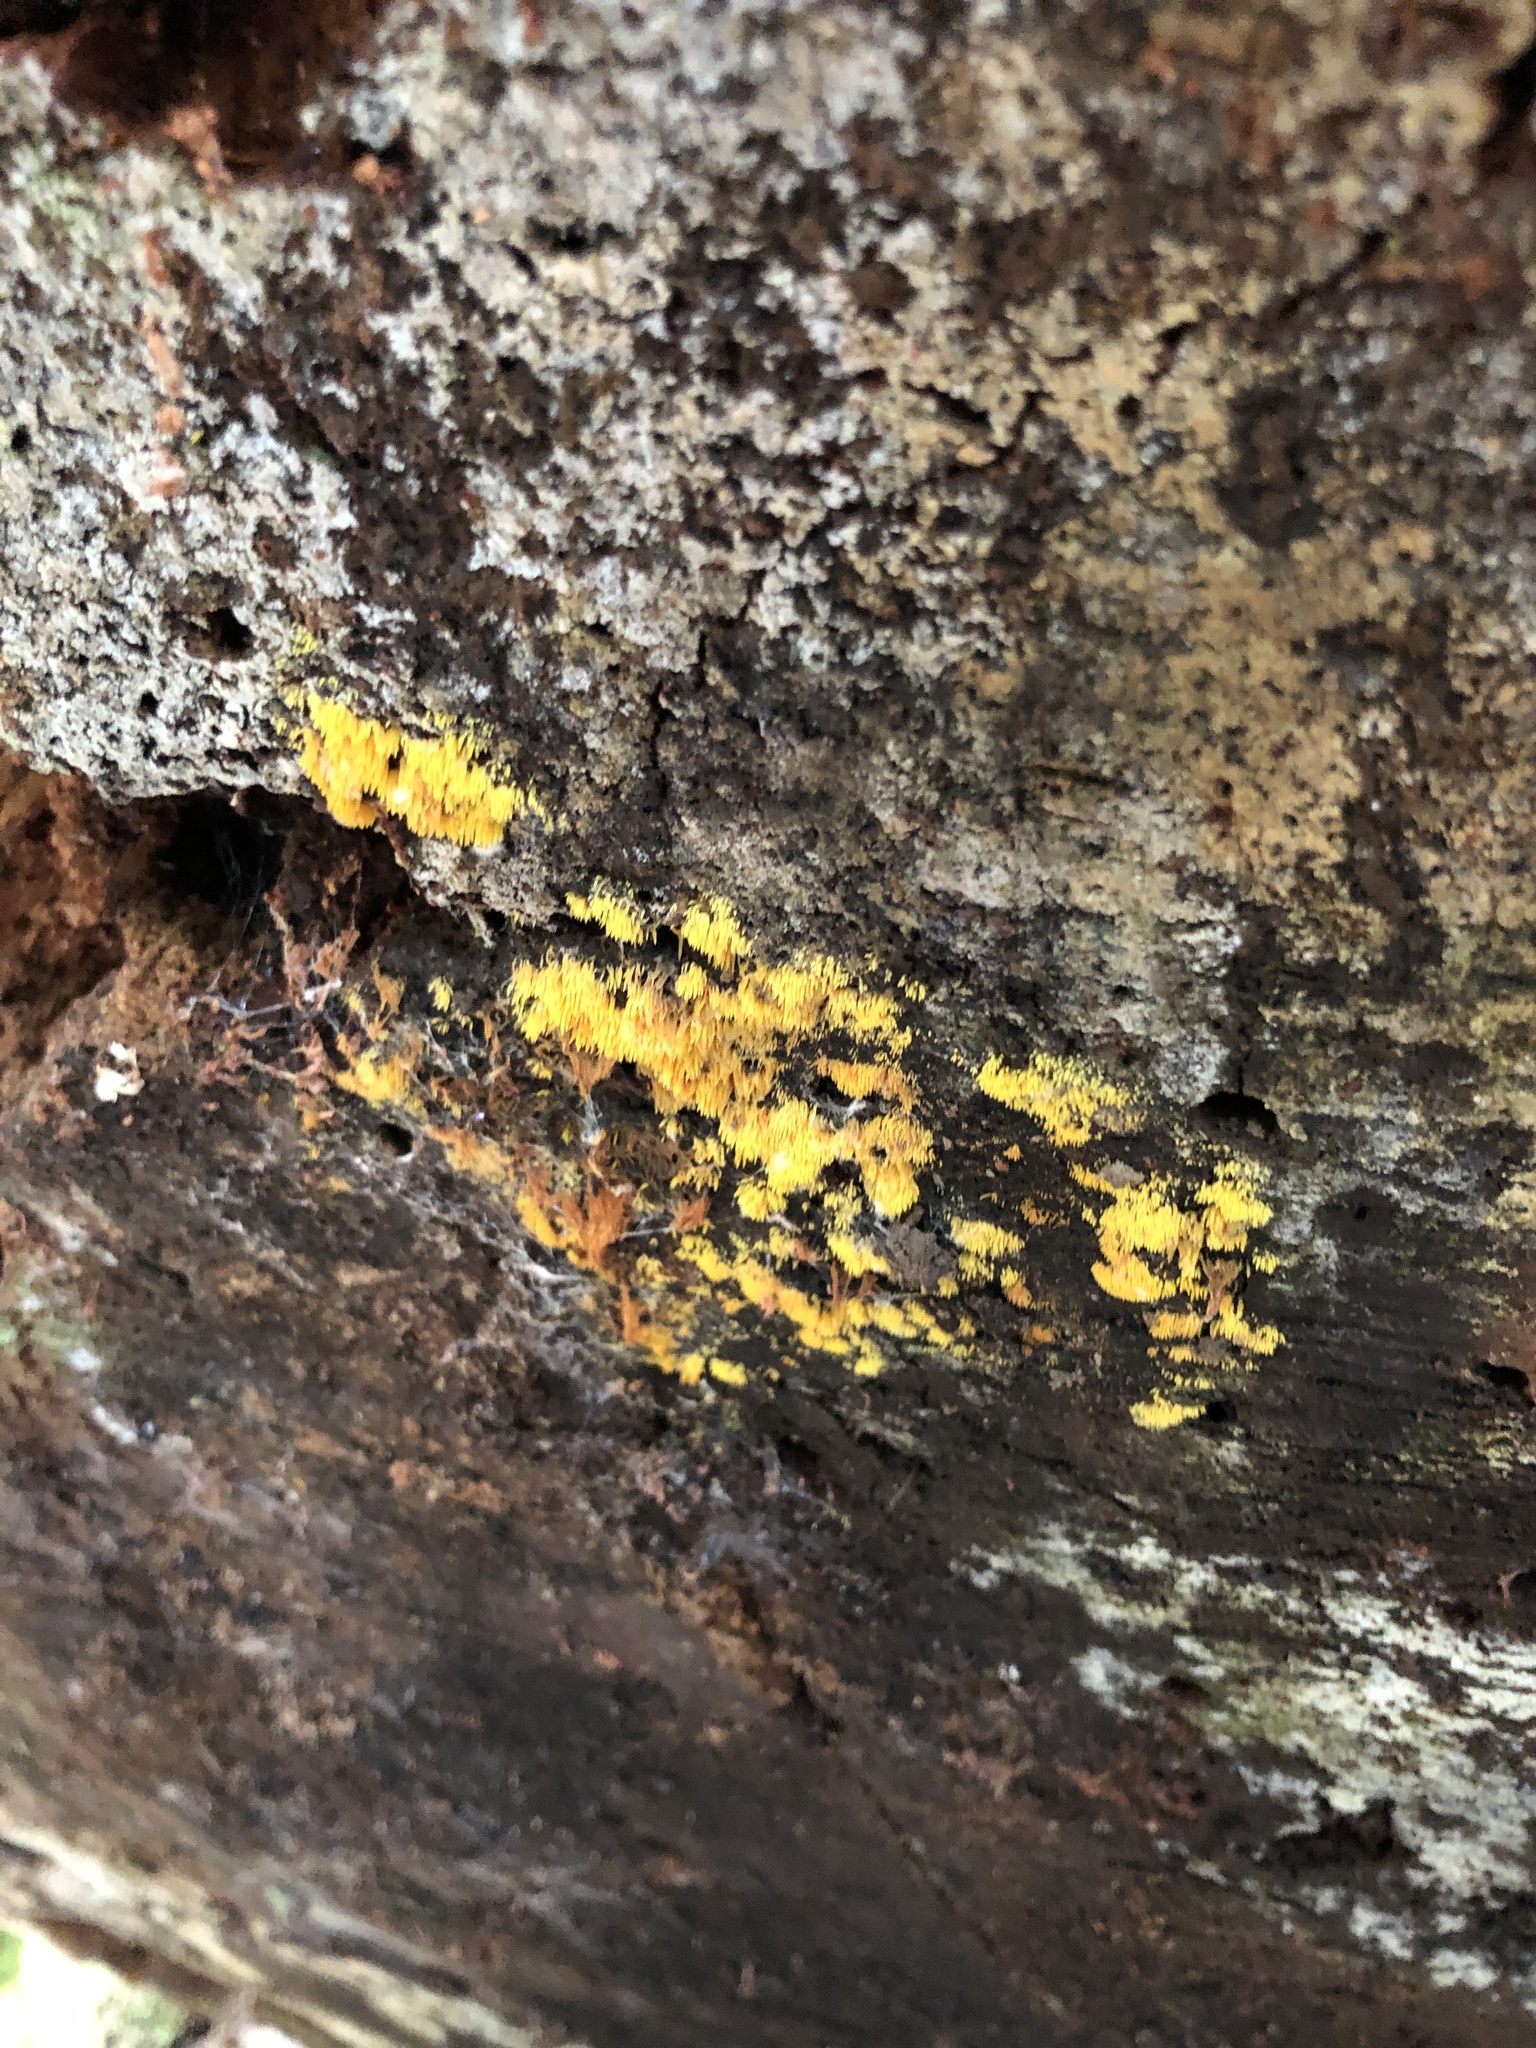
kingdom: Fungi
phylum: Basidiomycota
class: Agaricomycetes
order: Agaricales
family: Clavariaceae
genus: Mucronella
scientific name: Mucronella flava
